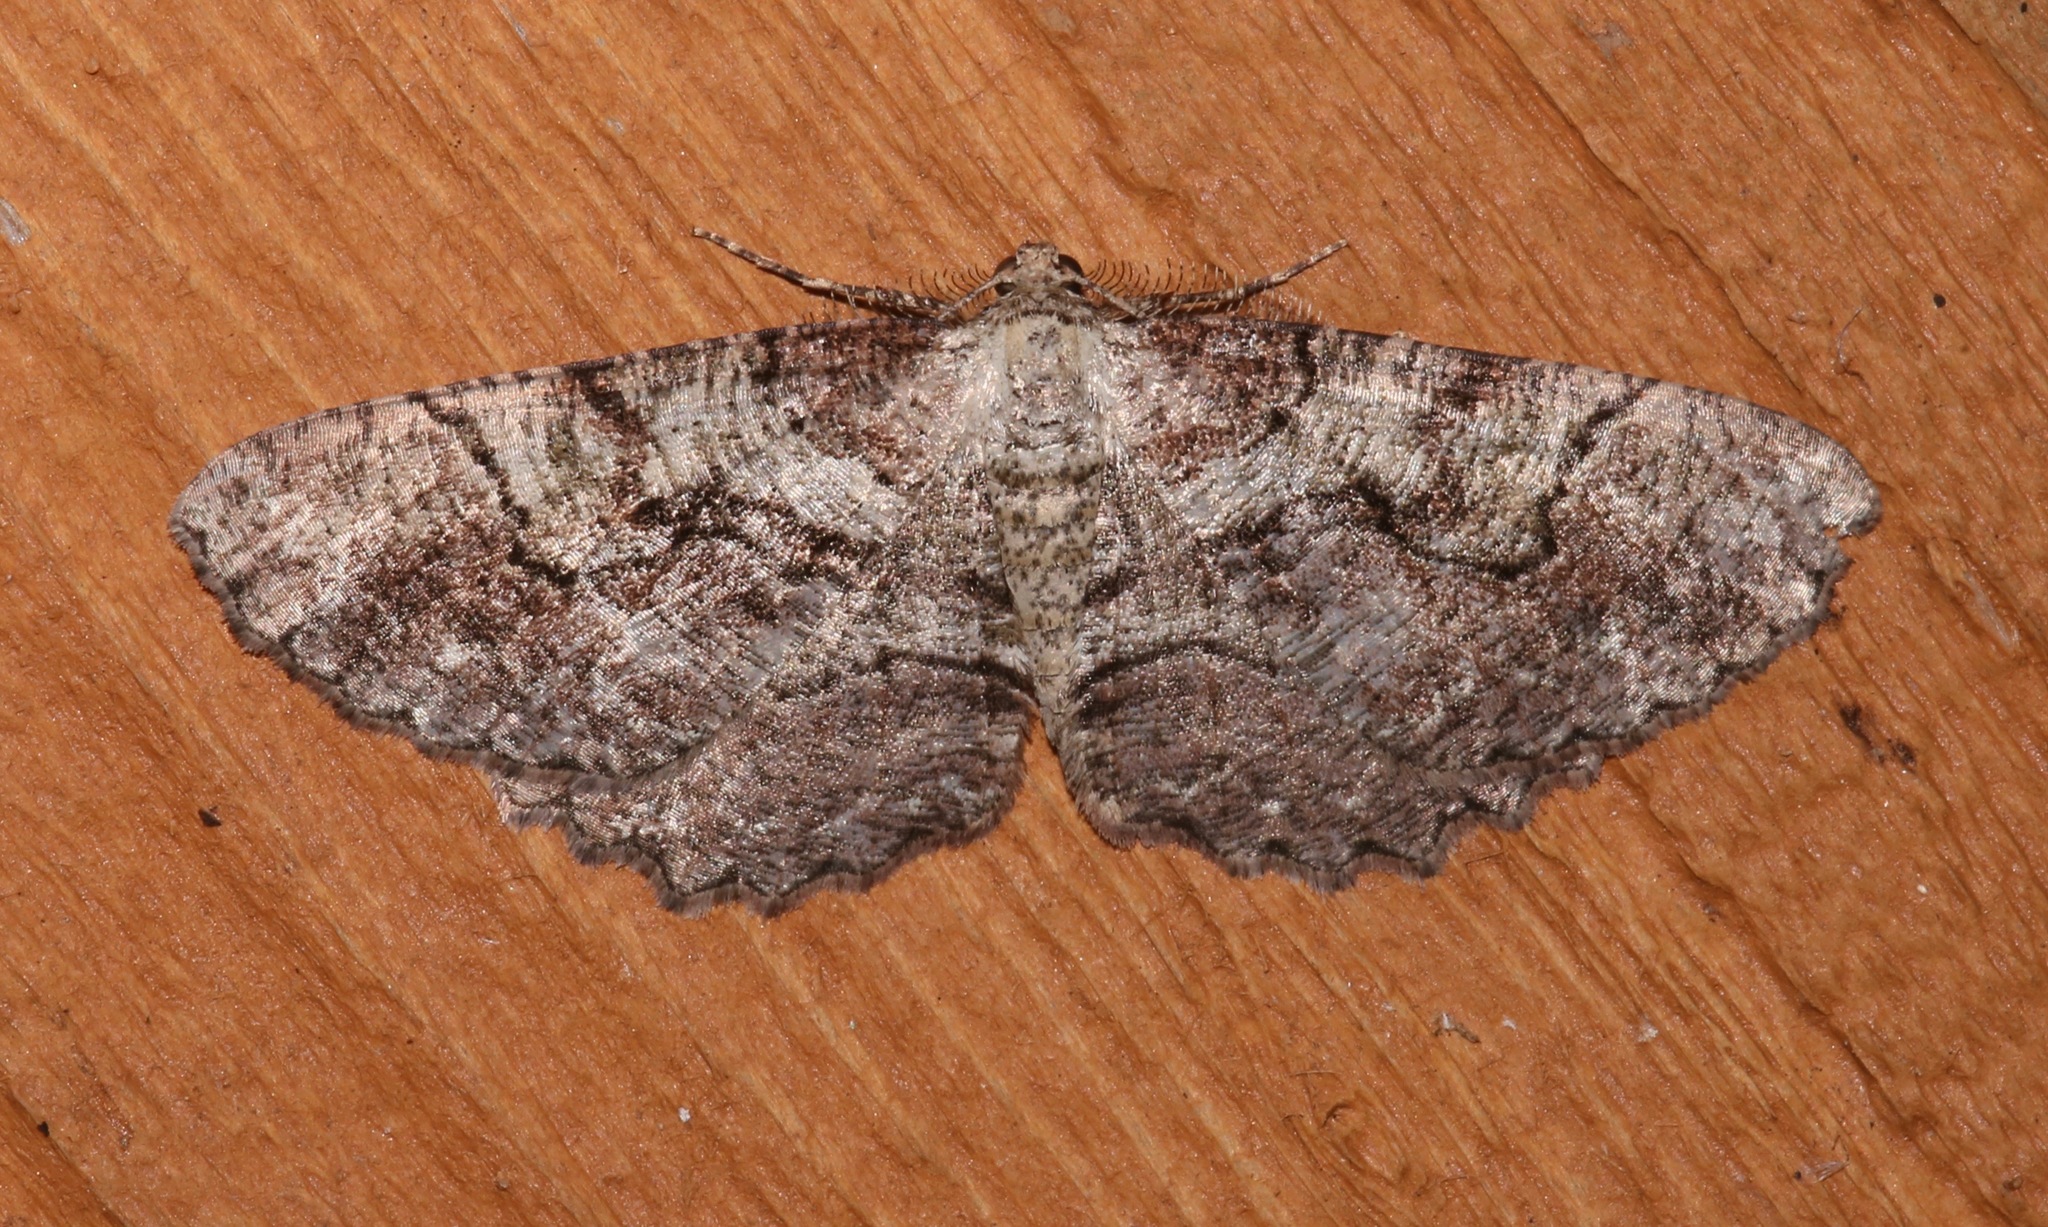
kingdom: Animalia
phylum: Arthropoda
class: Insecta
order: Lepidoptera
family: Geometridae
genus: Cymatophora
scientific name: Cymatophora approximaria
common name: Giant gray moth
